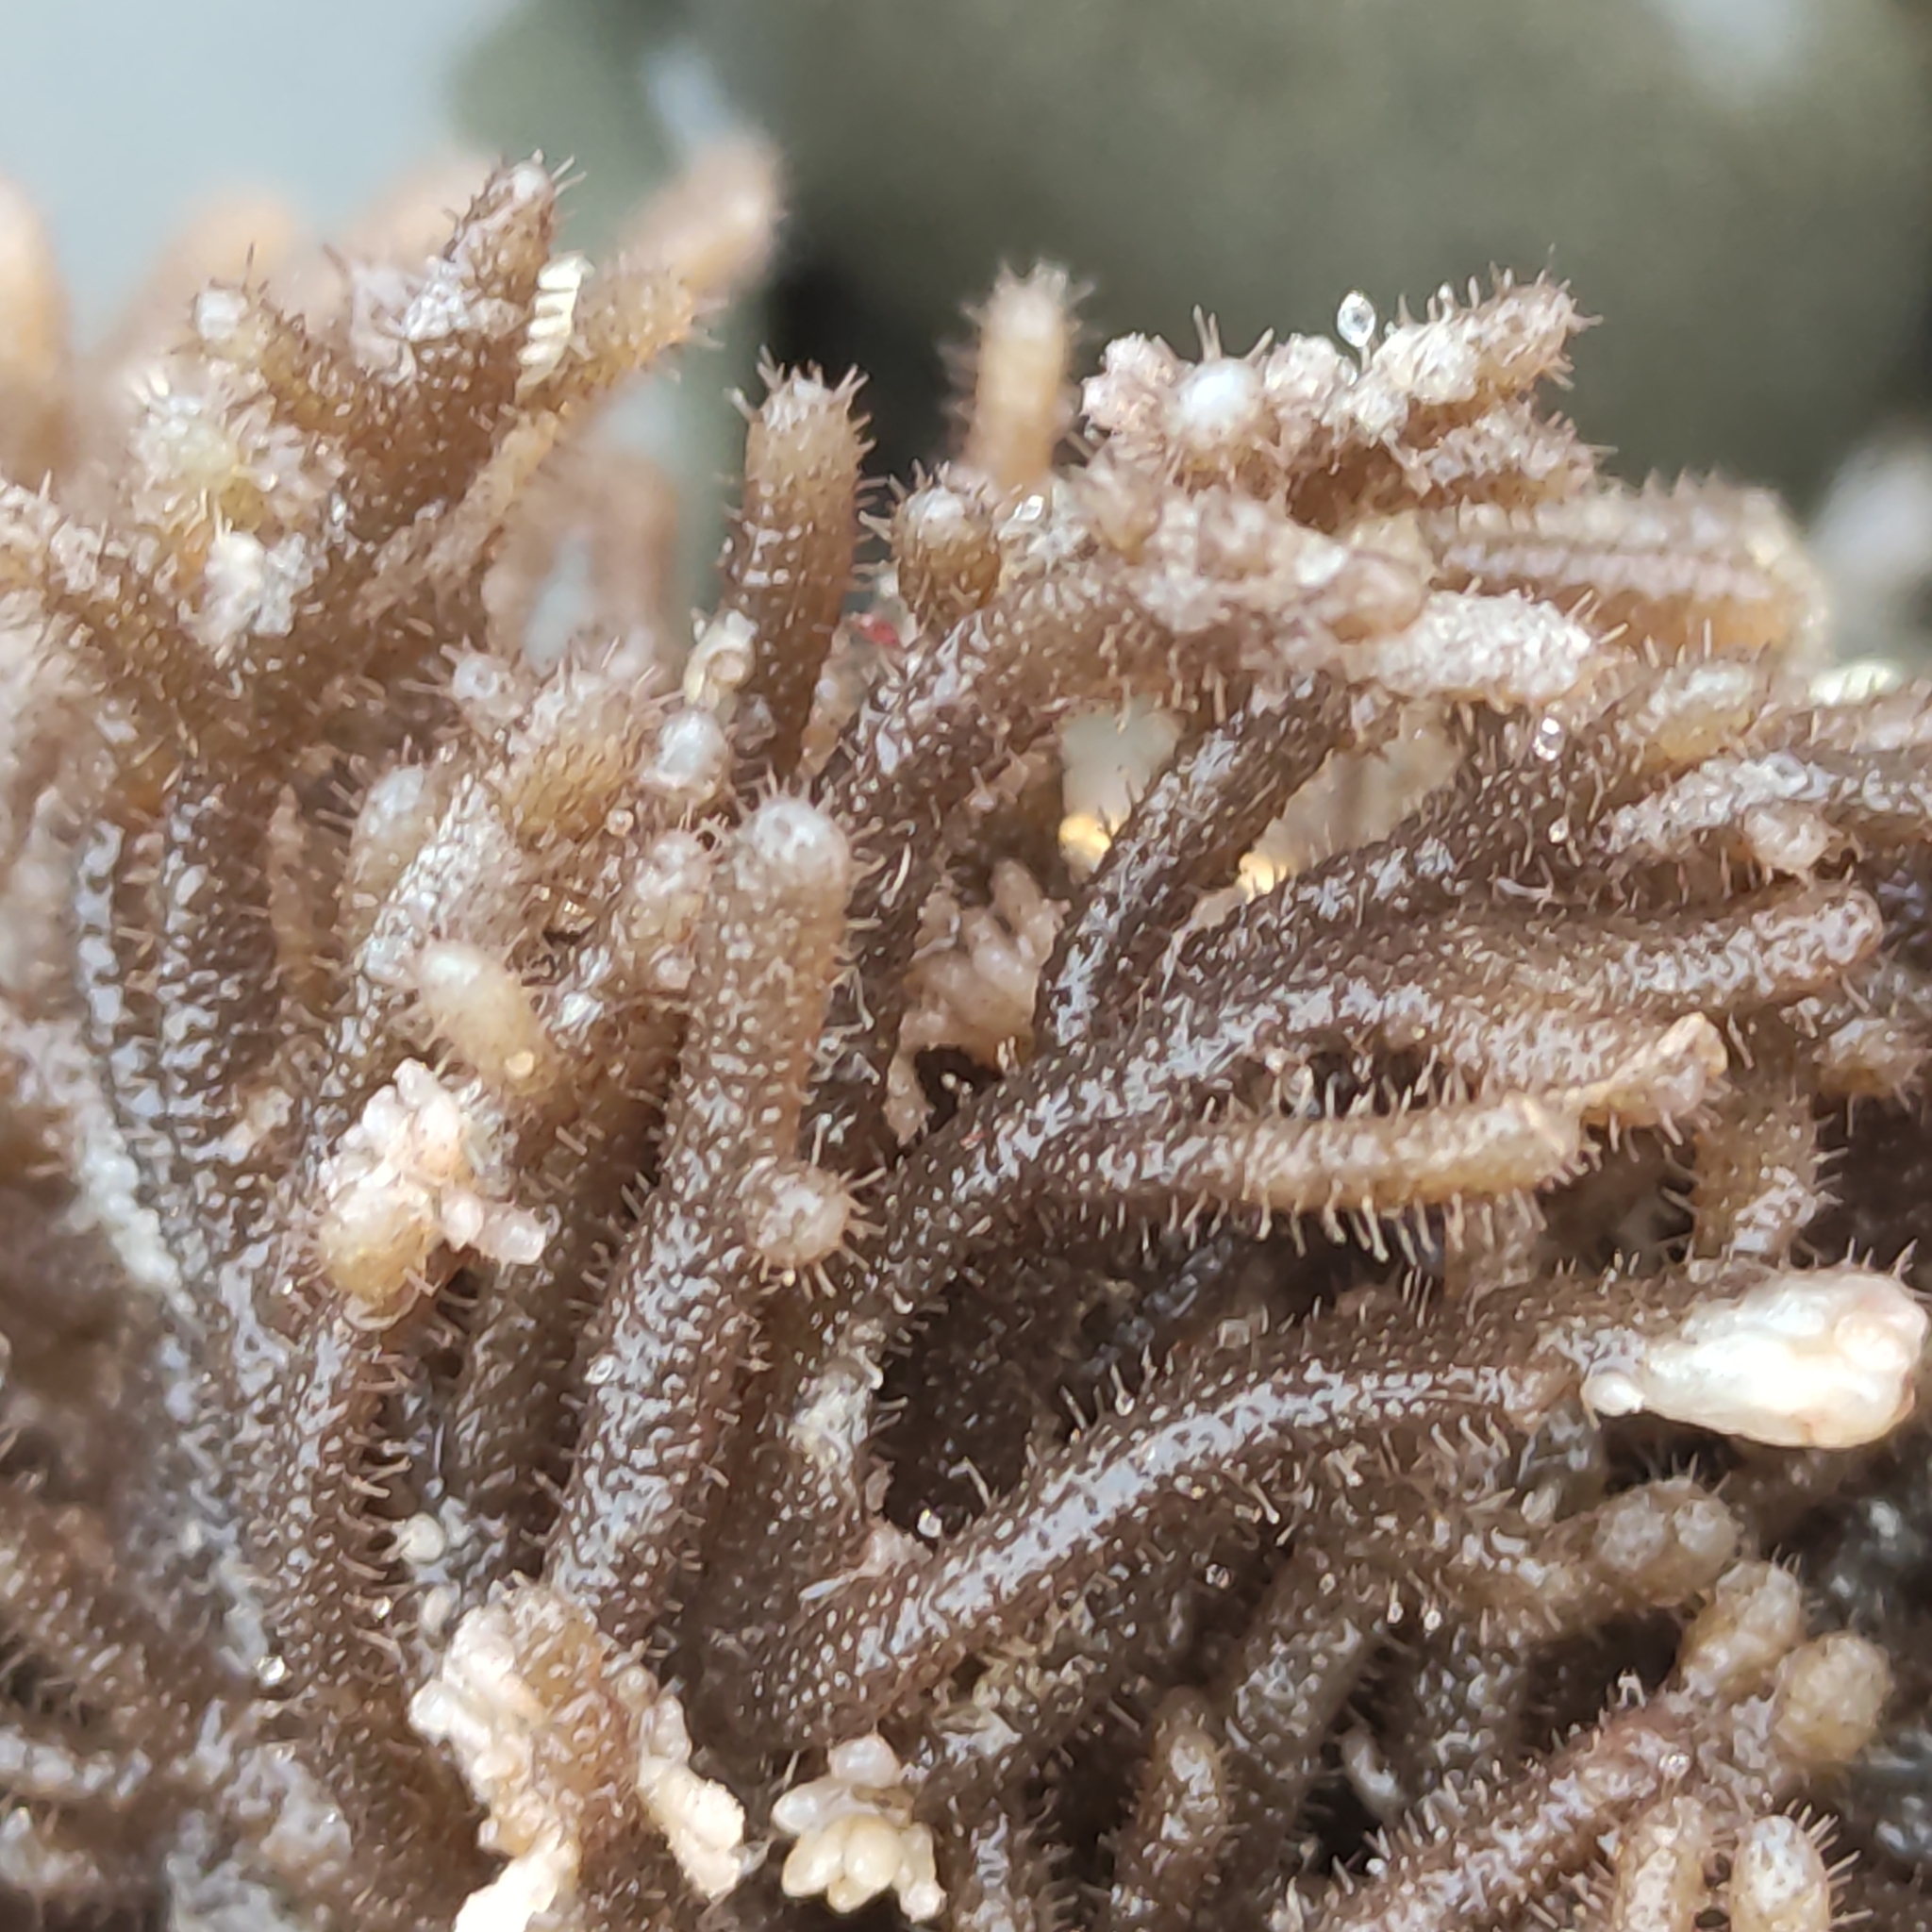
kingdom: Animalia
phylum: Bryozoa
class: Gymnolaemata
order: Ctenostomatida
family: Flustrellidridae
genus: Elzerina
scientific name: Elzerina binderi
